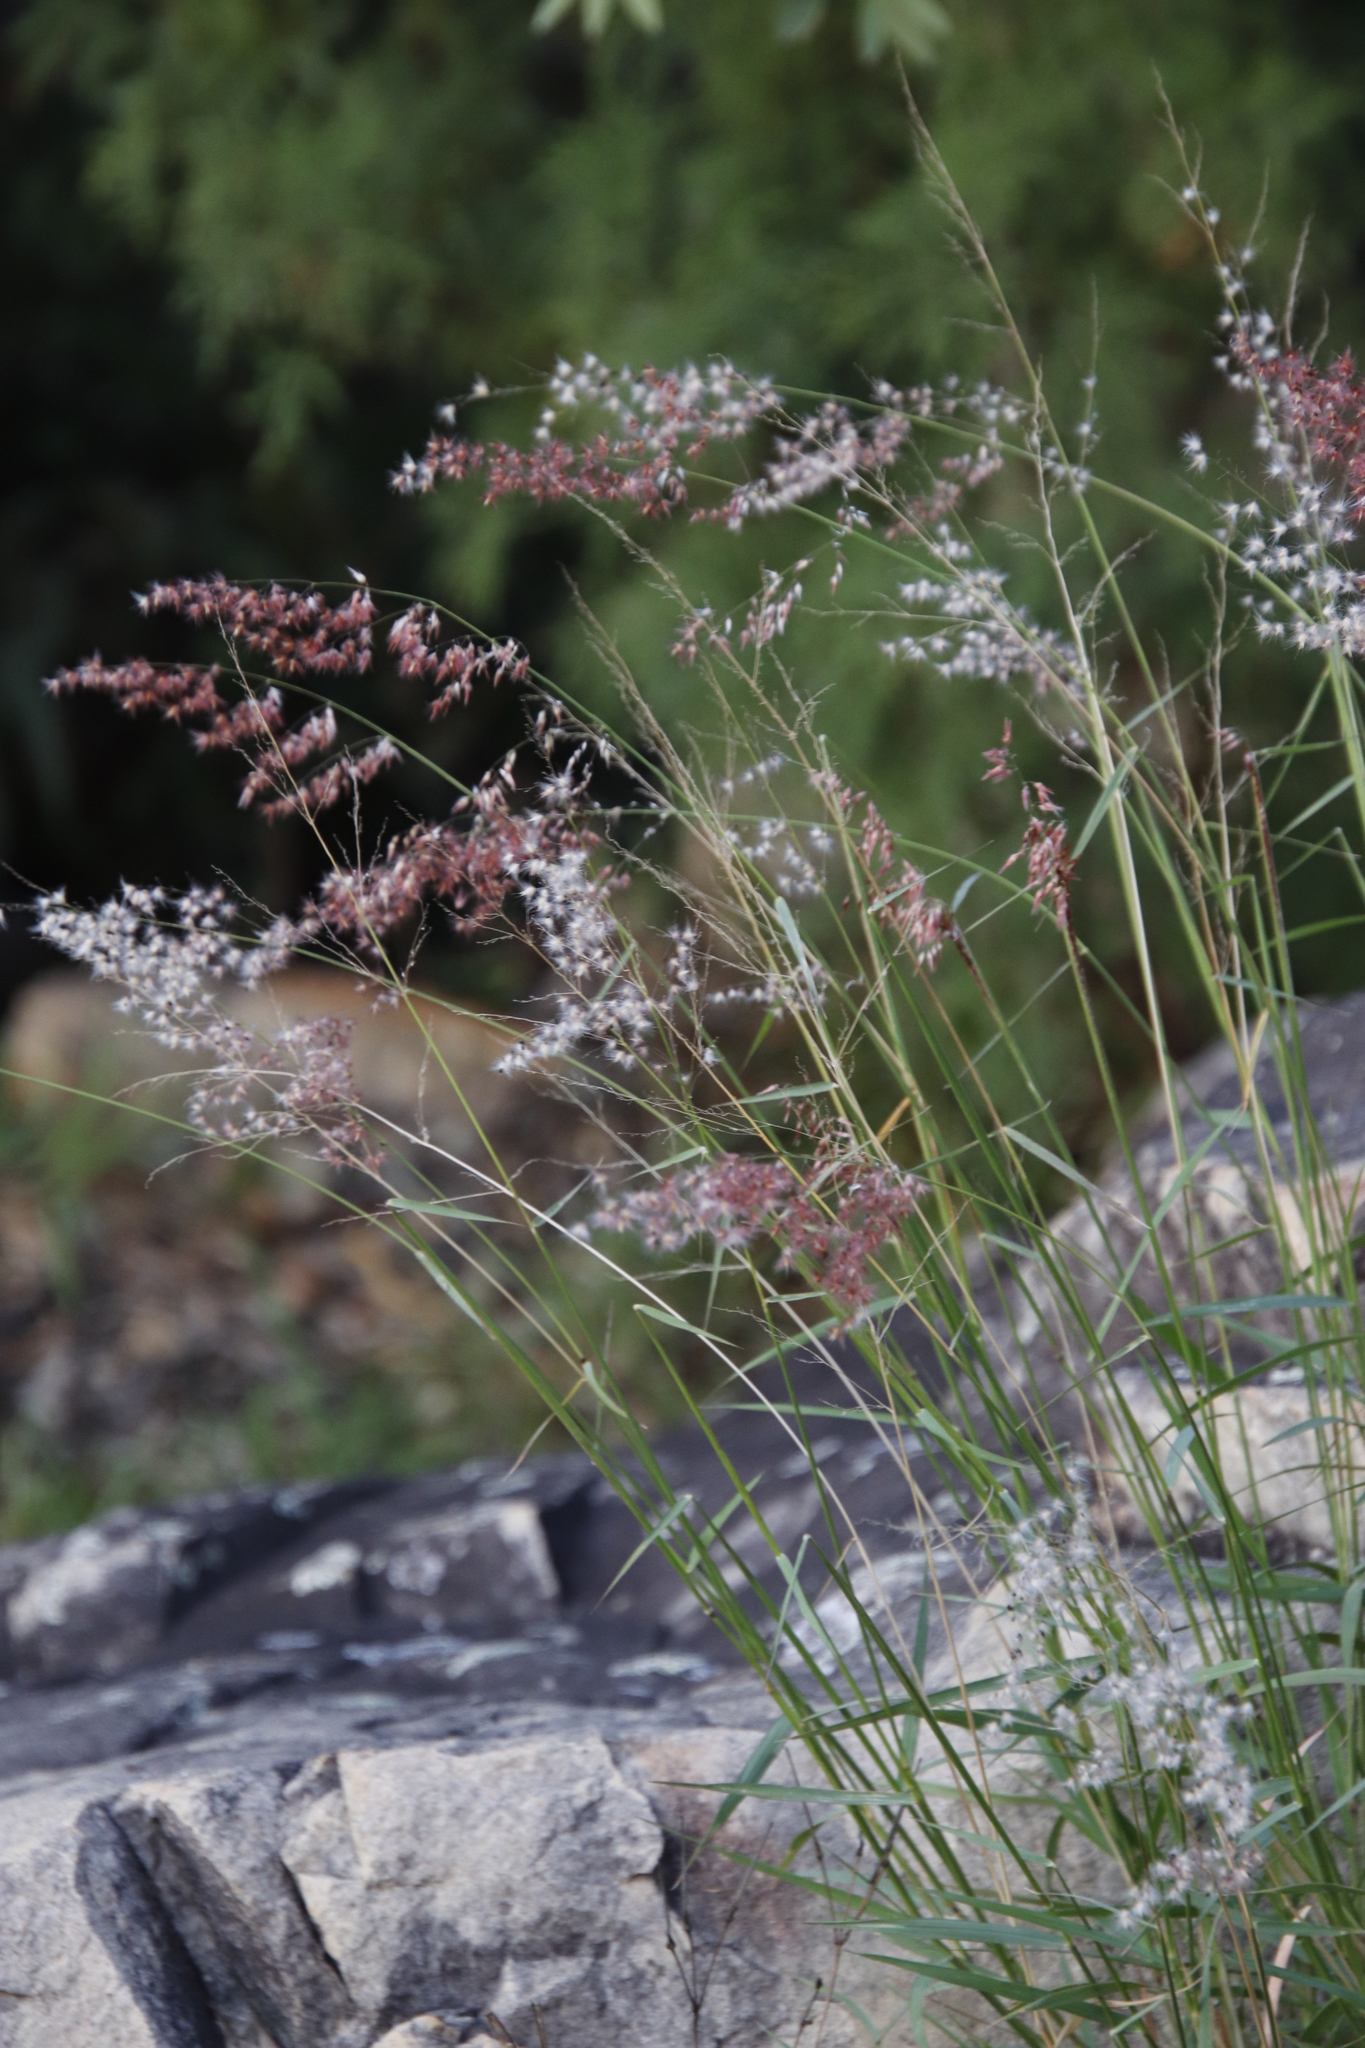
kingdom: Plantae
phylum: Tracheophyta
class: Liliopsida
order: Poales
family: Poaceae
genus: Melinis
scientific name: Melinis repens
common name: Rose natal grass
